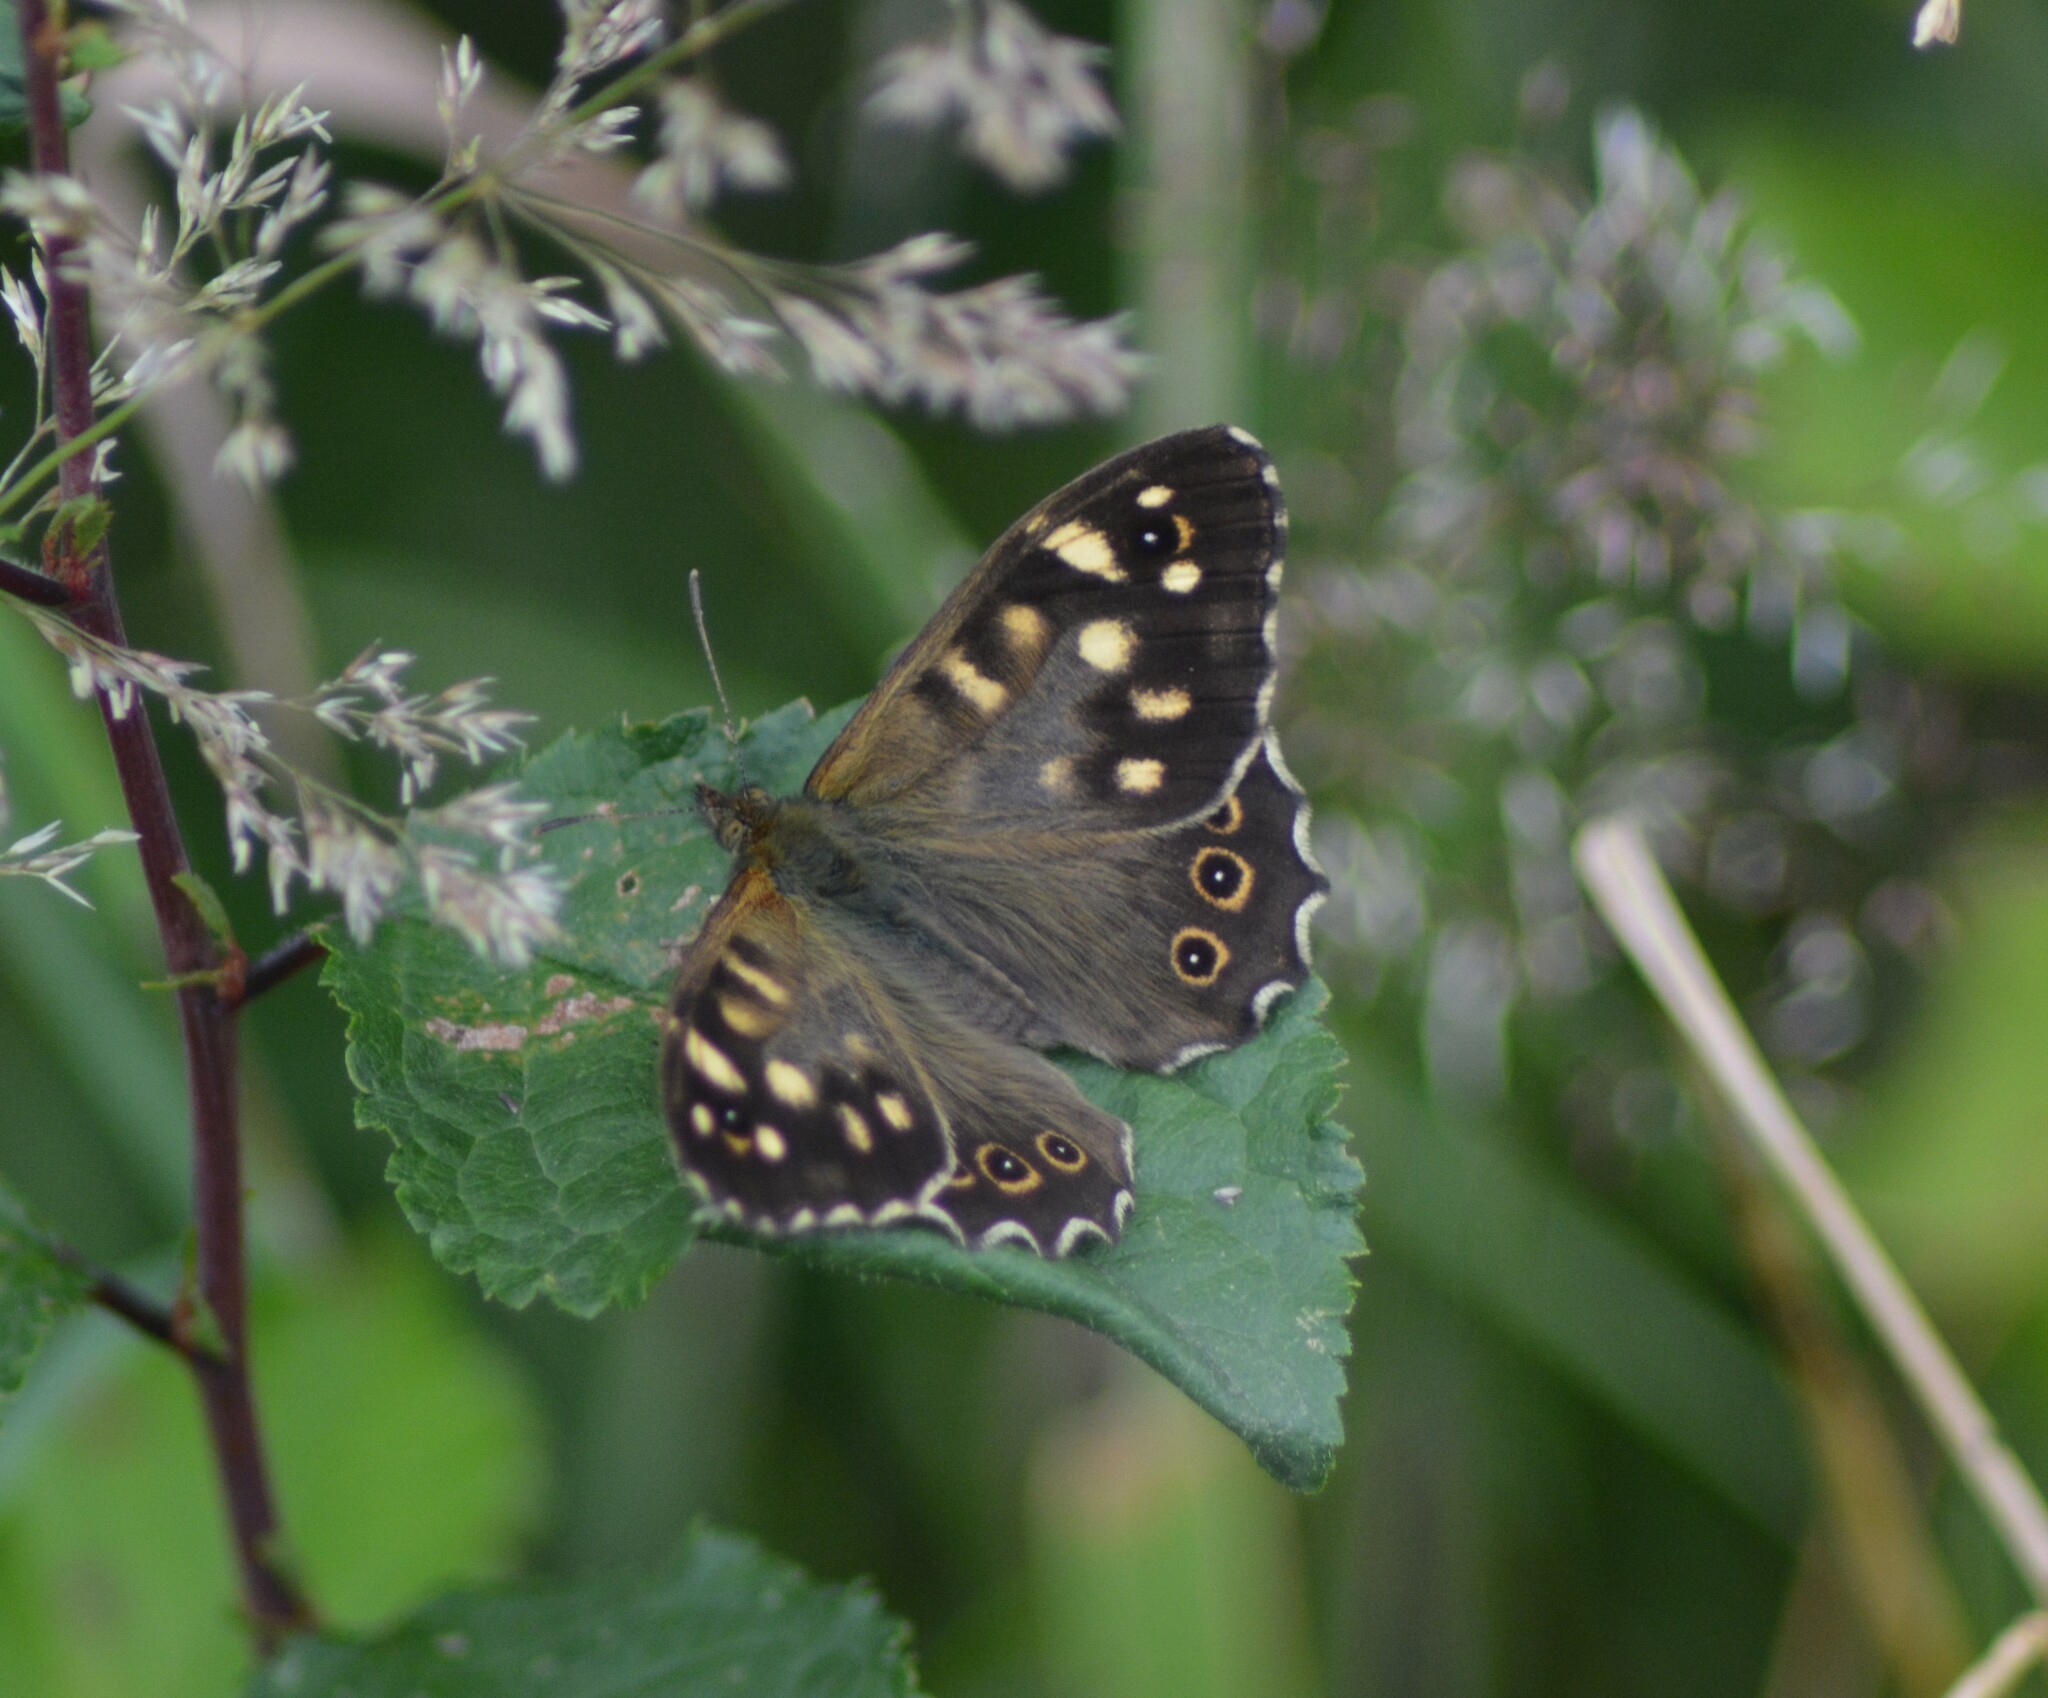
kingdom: Animalia
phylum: Arthropoda
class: Insecta
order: Lepidoptera
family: Nymphalidae
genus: Pararge
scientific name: Pararge aegeria
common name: Speckled wood
